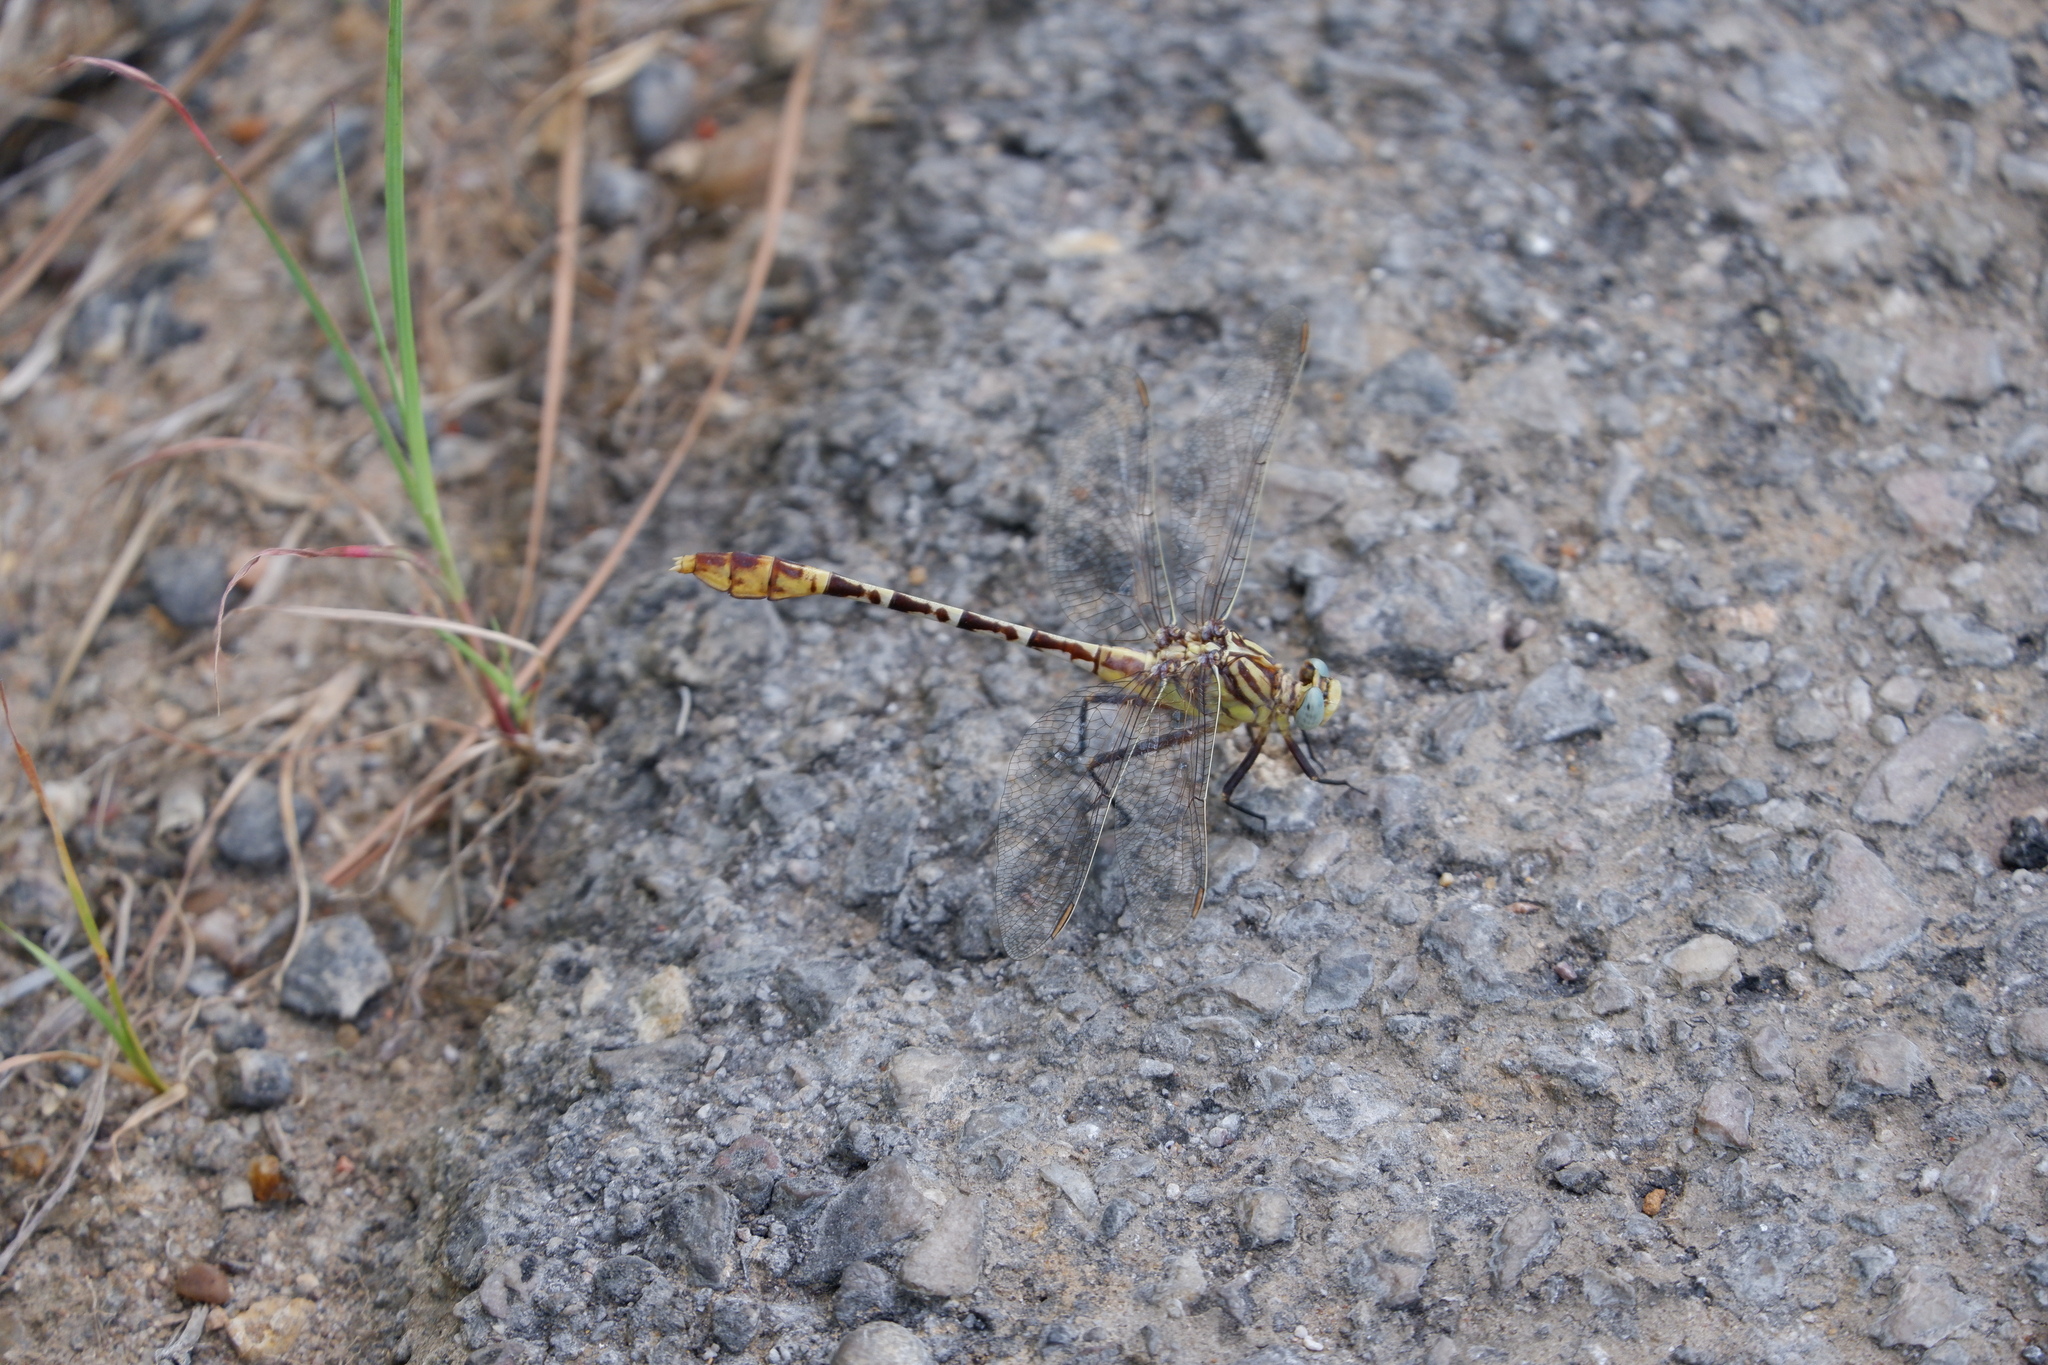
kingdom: Animalia
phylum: Arthropoda
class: Insecta
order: Odonata
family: Gomphidae
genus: Dromogomphus
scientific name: Dromogomphus spoliatus
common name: Flag-tailed spinyleg
